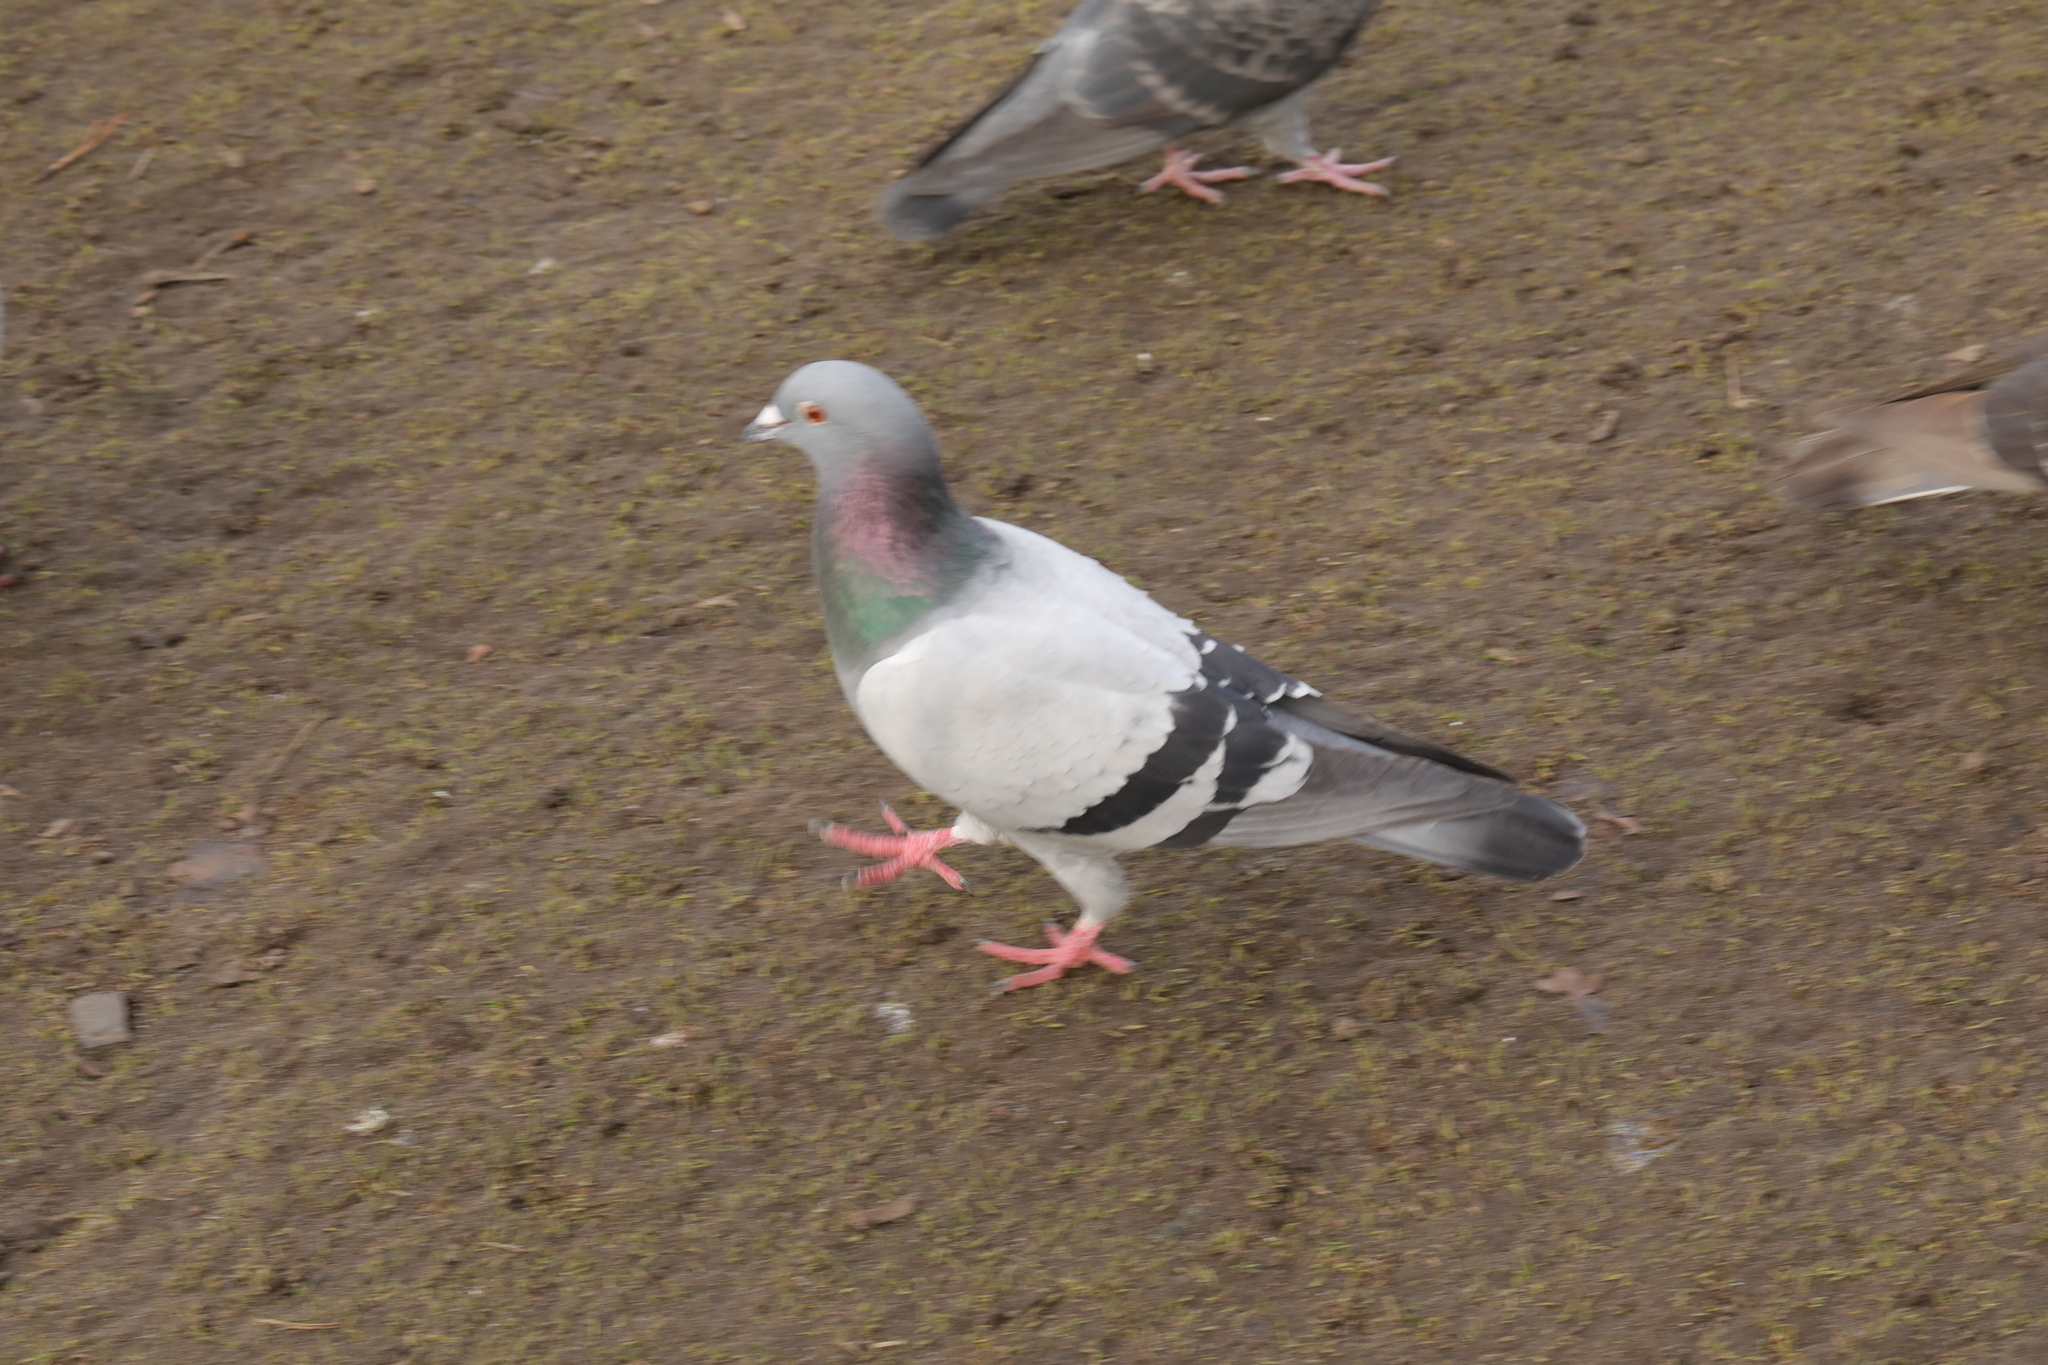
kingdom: Animalia
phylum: Chordata
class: Aves
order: Columbiformes
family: Columbidae
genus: Columba
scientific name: Columba livia
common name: Rock pigeon
